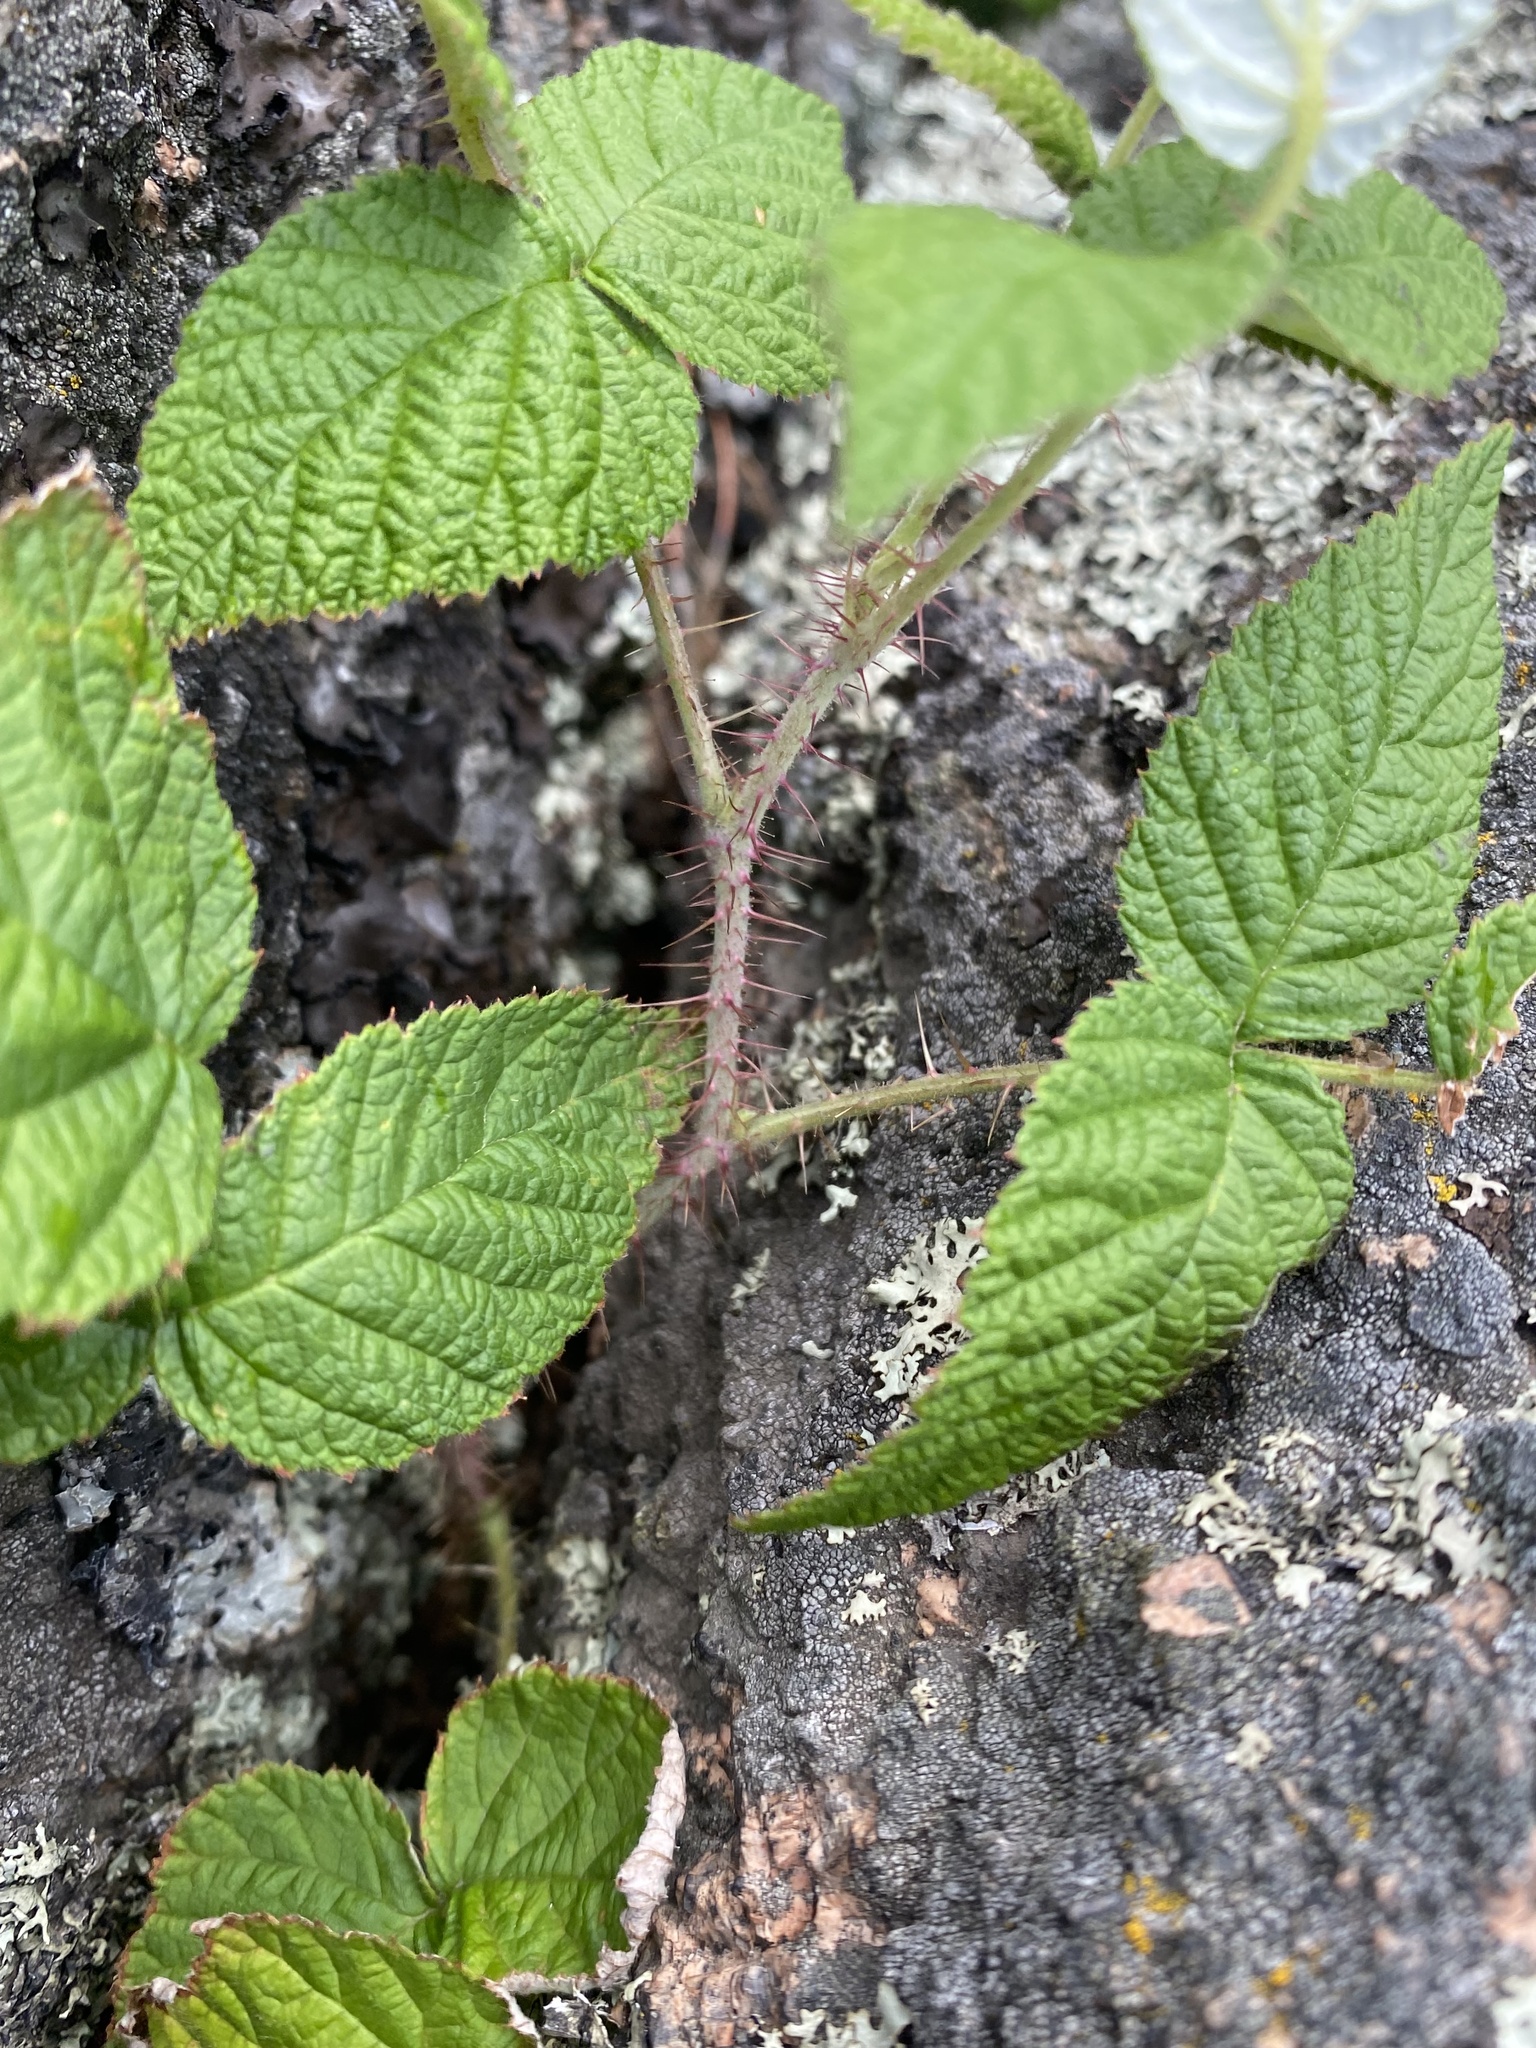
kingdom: Plantae
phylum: Tracheophyta
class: Magnoliopsida
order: Rosales
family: Rosaceae
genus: Rubus
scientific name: Rubus sachalinensis
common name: Red raspberry
